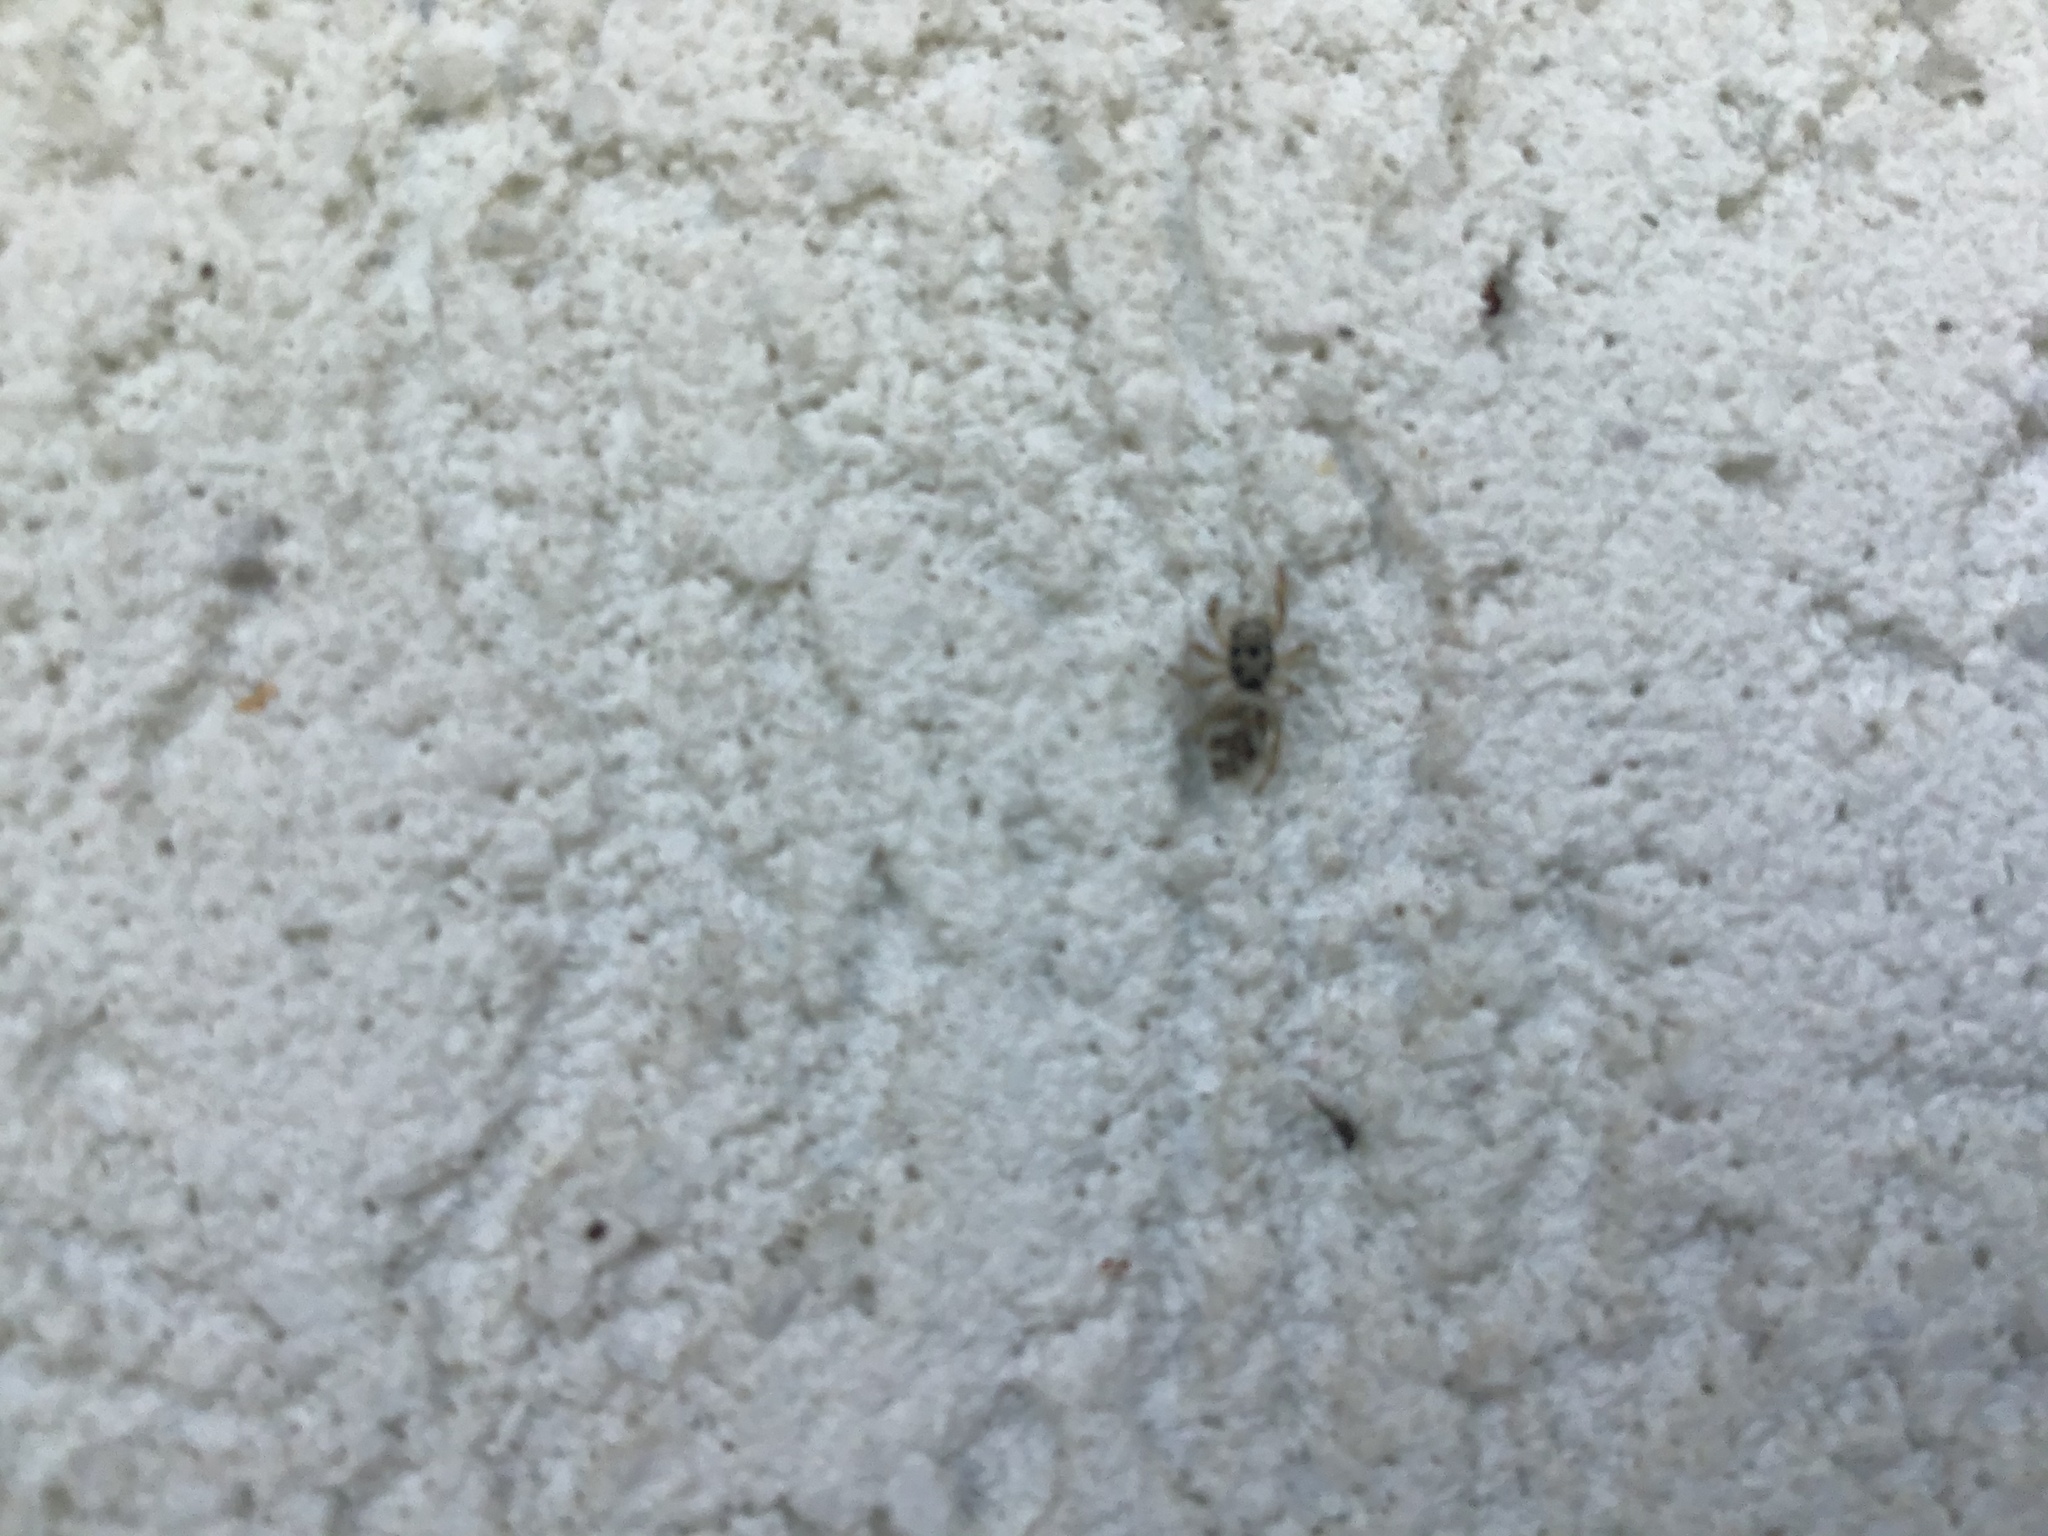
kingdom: Animalia
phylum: Arthropoda
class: Arachnida
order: Araneae
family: Salticidae
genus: Salticus
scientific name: Salticus scenicus
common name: Zebra jumper
